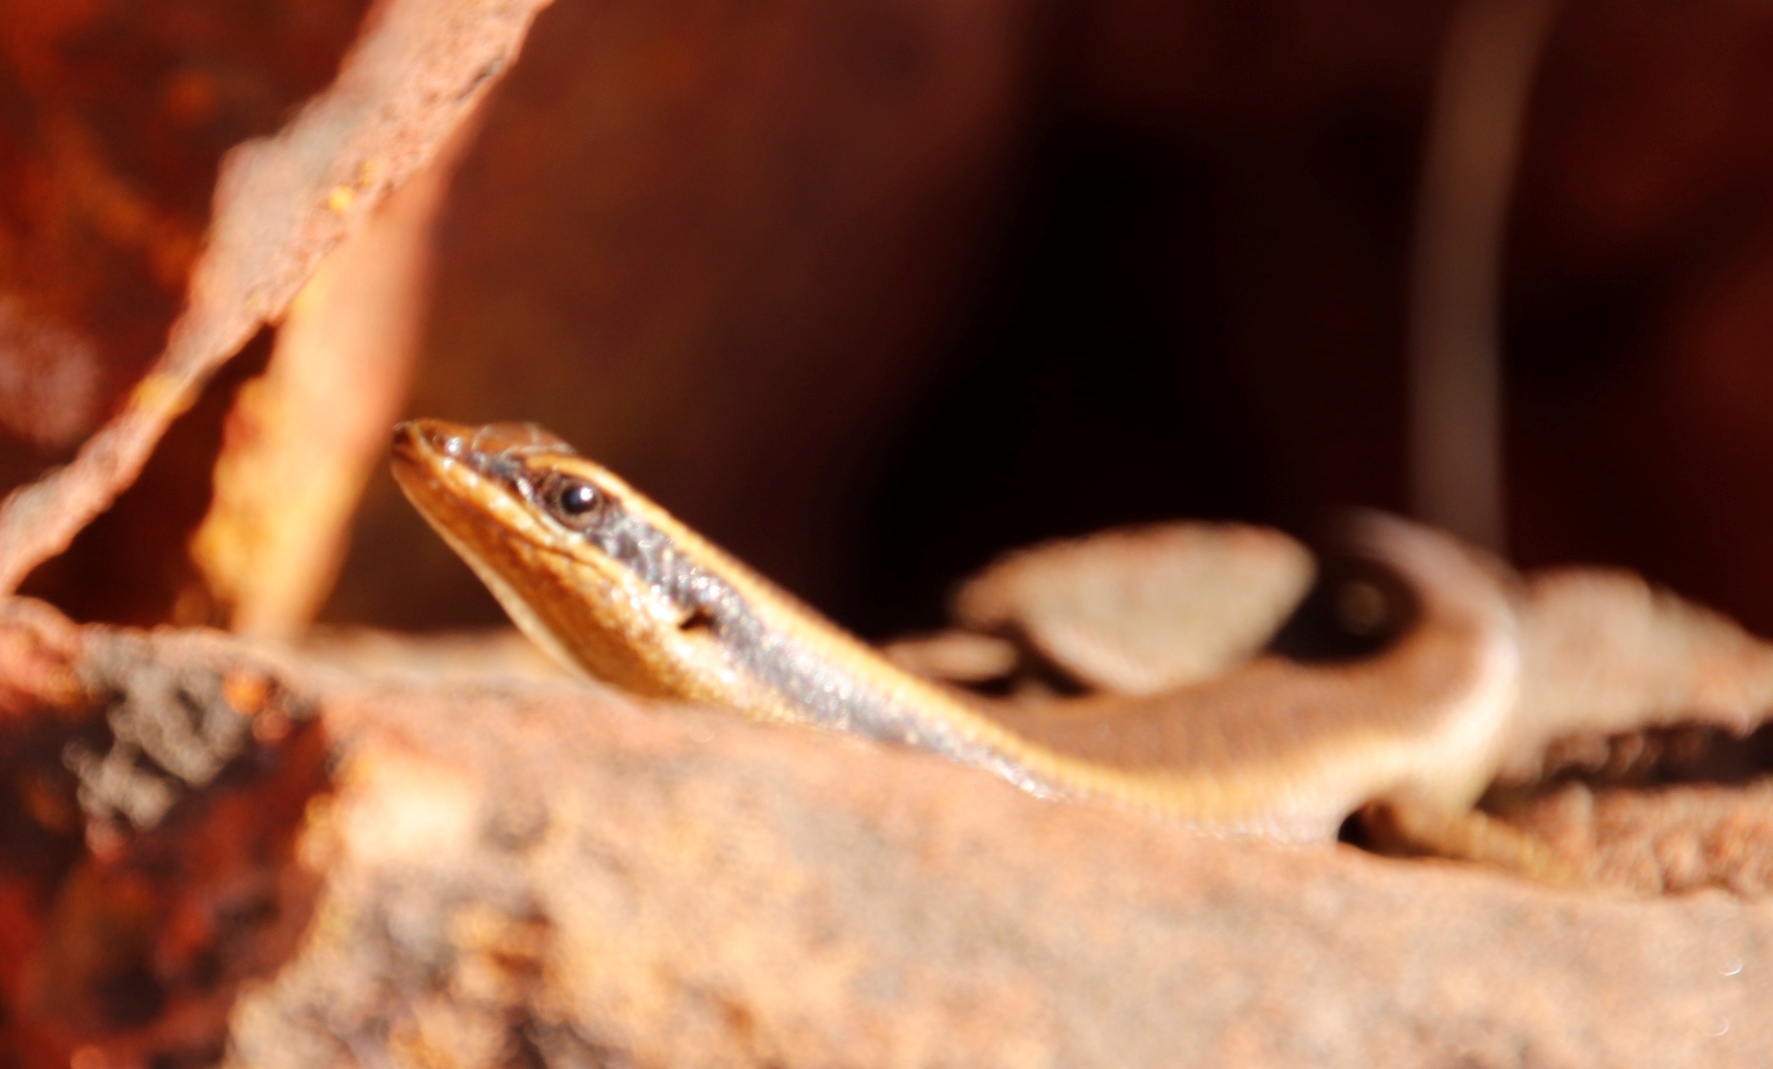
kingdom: Animalia
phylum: Chordata
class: Squamata
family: Scincidae
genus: Trachylepis
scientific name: Trachylepis wahlbergii
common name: Wahlberg’s striped skink
